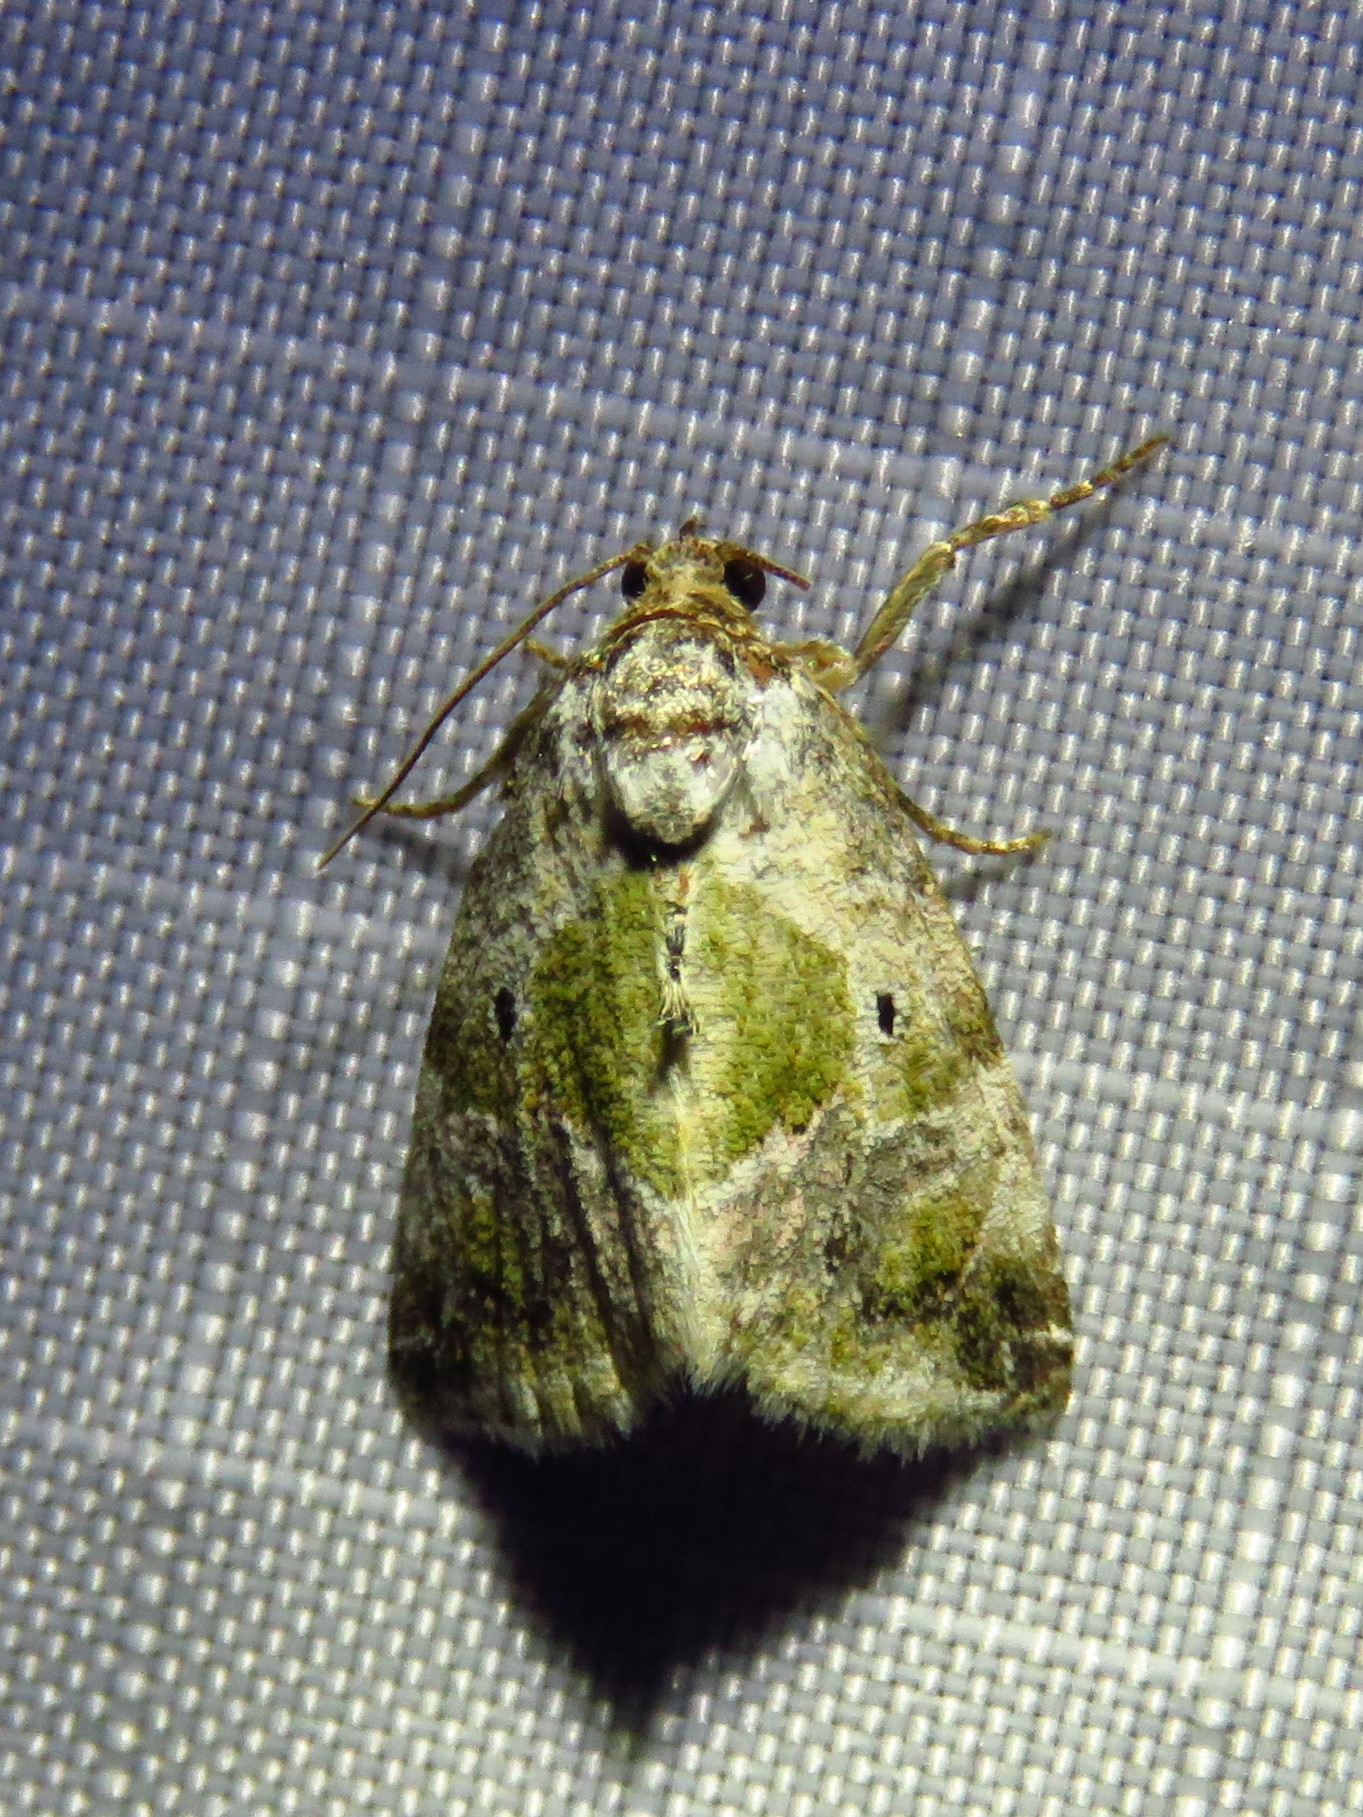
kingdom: Animalia
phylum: Arthropoda
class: Insecta
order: Lepidoptera
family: Noctuidae
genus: Maliattha
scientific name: Maliattha synochitis
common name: Black-dotted glyph
